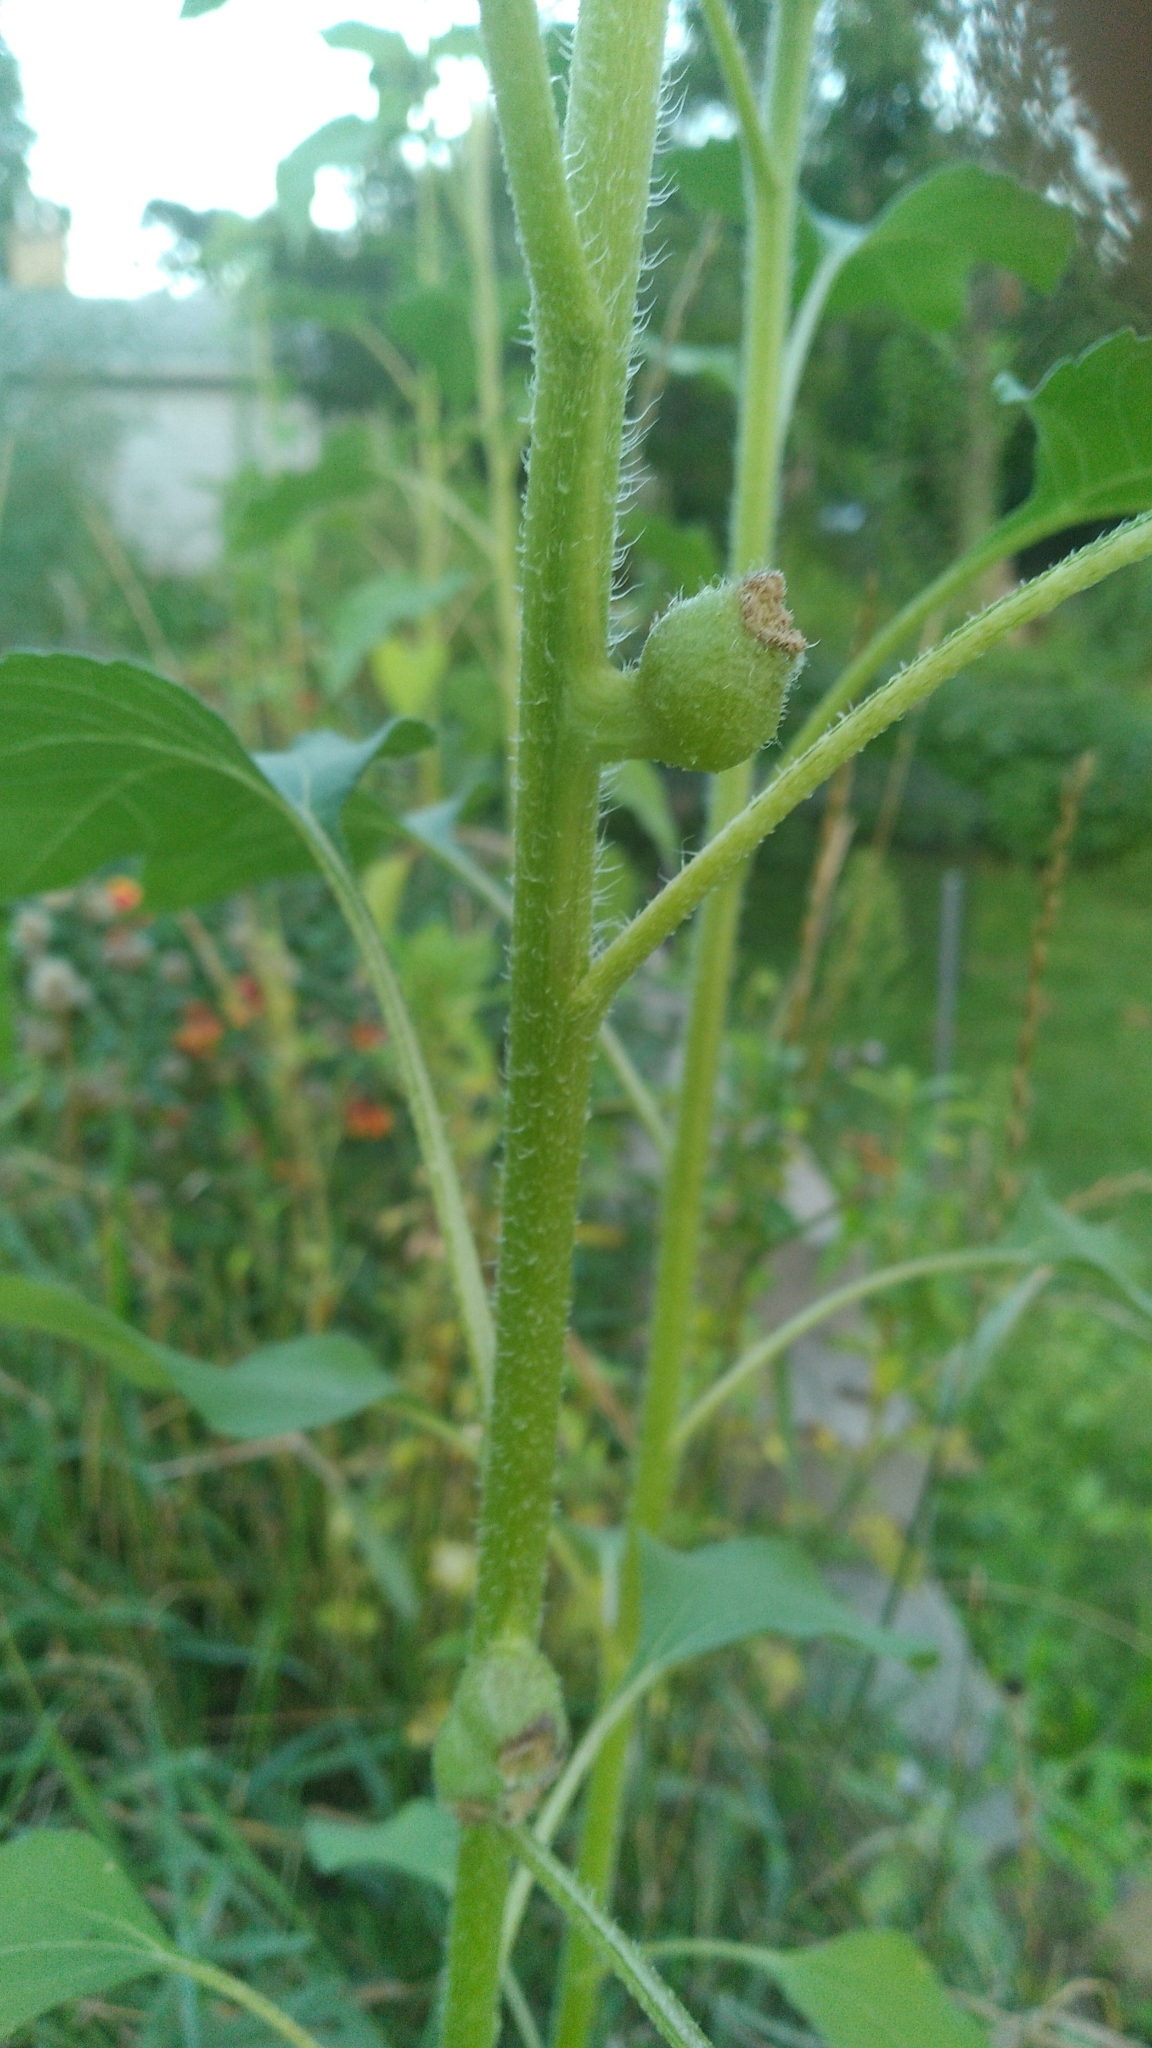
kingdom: Animalia
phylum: Arthropoda
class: Insecta
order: Diptera
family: Cecidomyiidae
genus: Asphondylia
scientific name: Asphondylia helianthiglobulus
